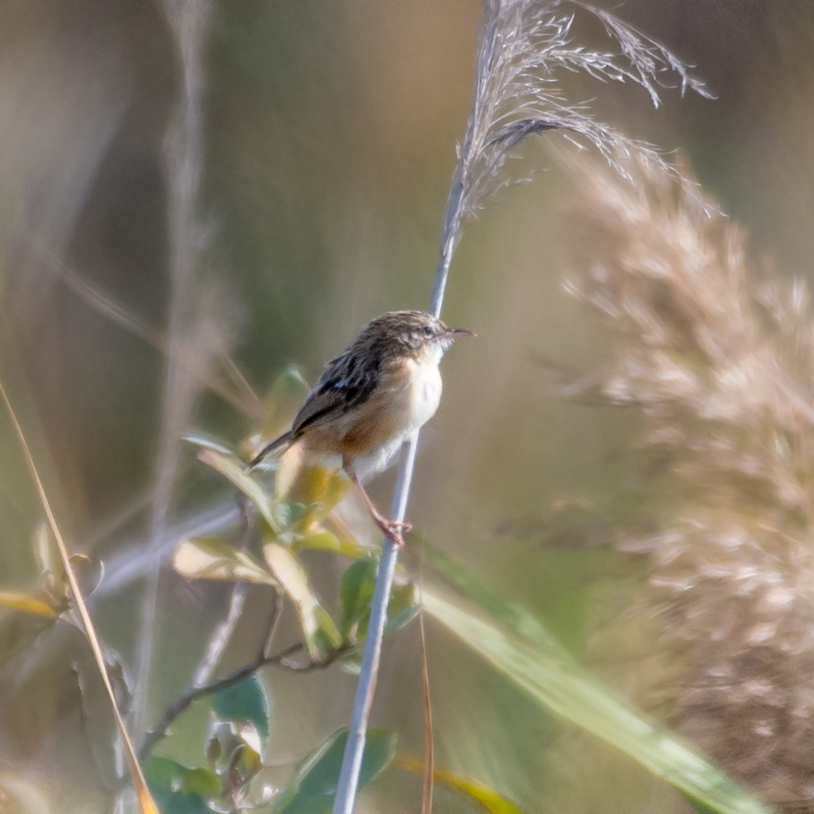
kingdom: Animalia
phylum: Chordata
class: Aves
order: Passeriformes
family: Cisticolidae
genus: Cisticola
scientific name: Cisticola juncidis
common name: Zitting cisticola
